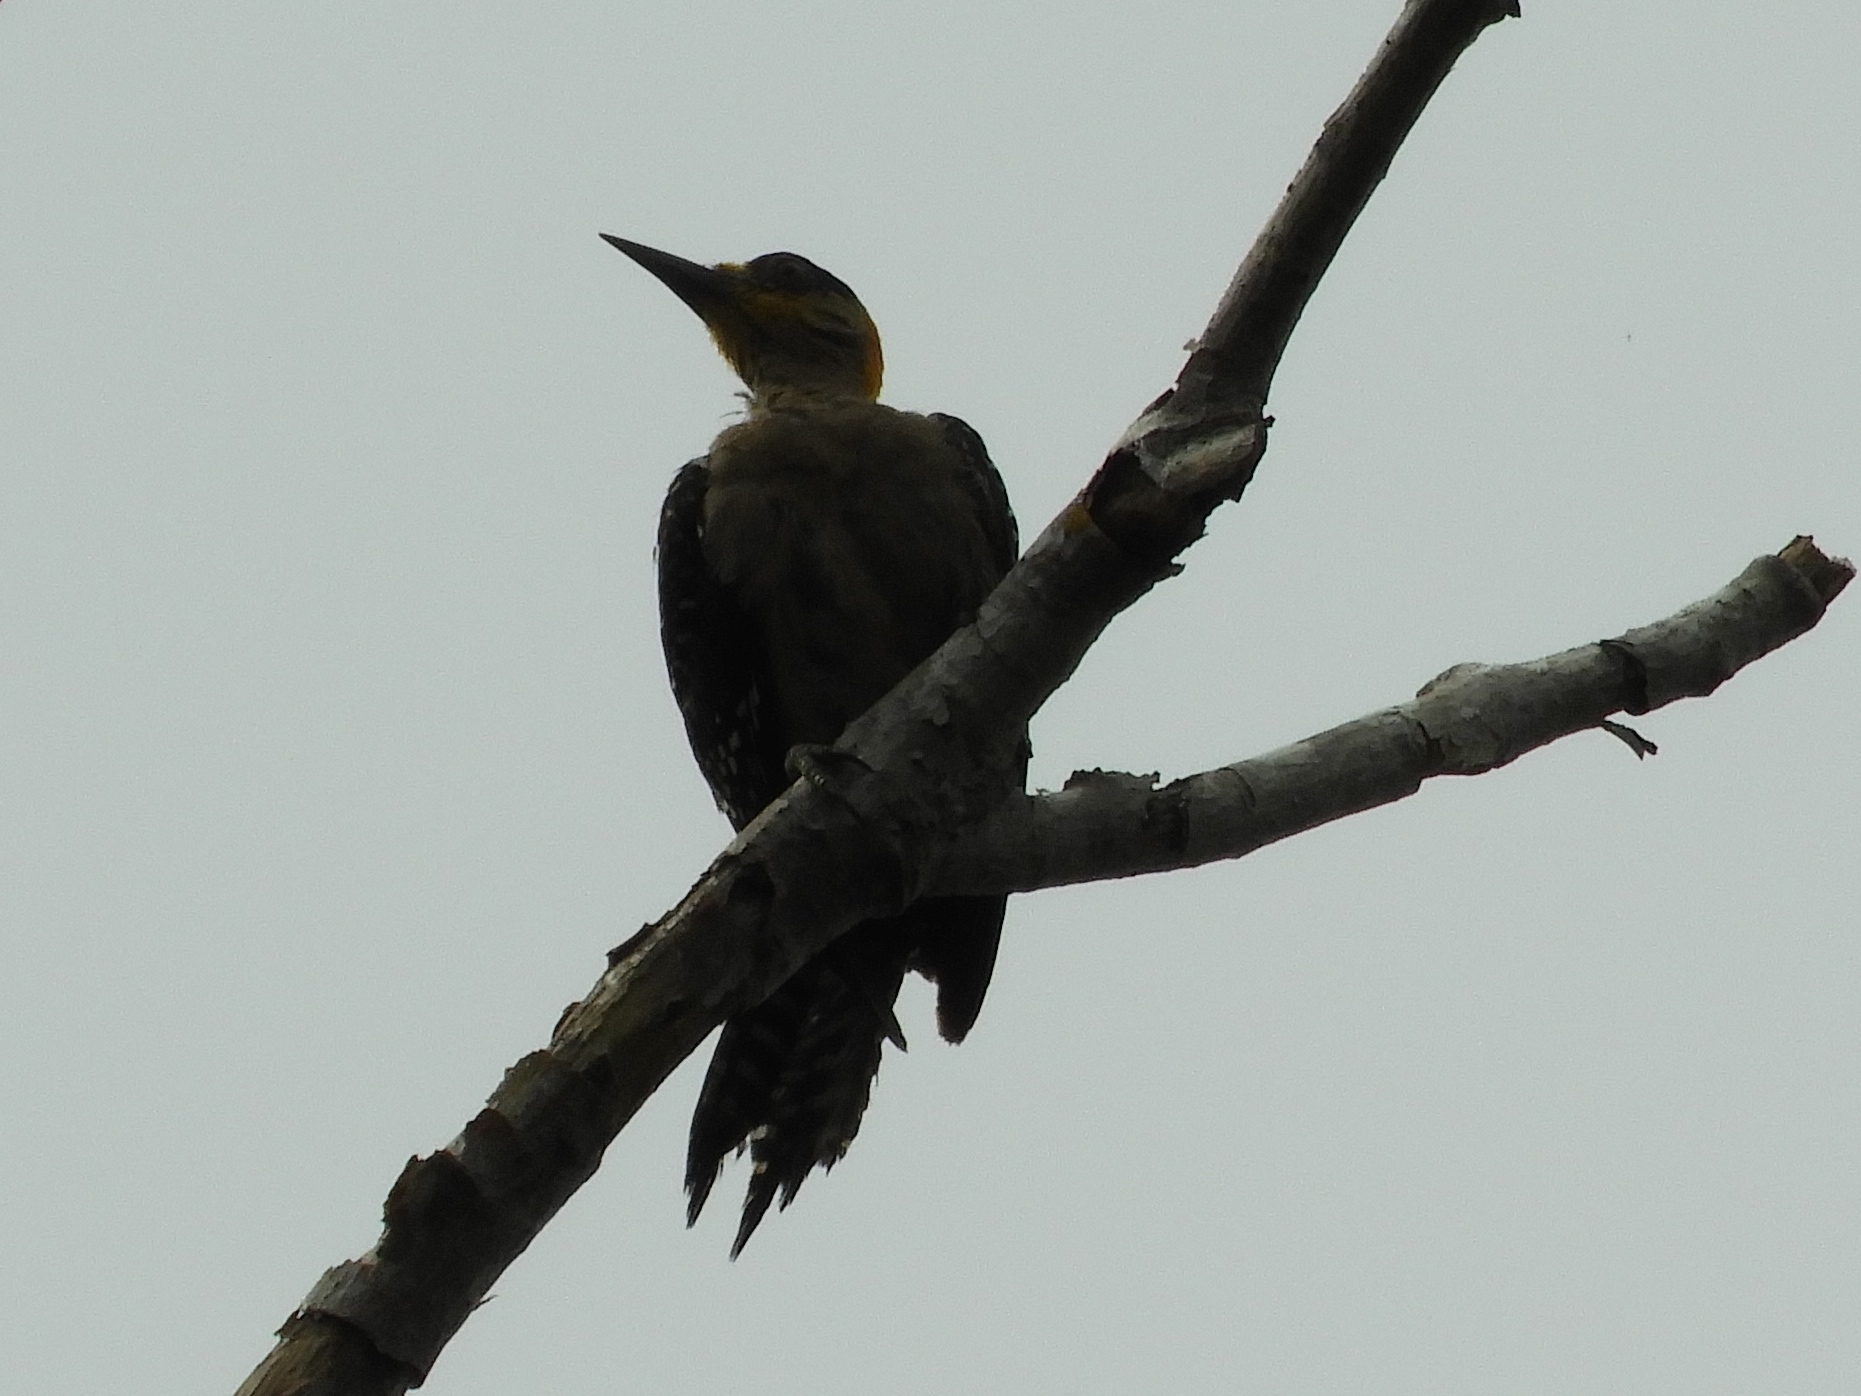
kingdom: Animalia
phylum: Chordata
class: Aves
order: Piciformes
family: Picidae
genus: Melanerpes
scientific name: Melanerpes chrysogenys
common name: Golden-cheeked woodpecker
